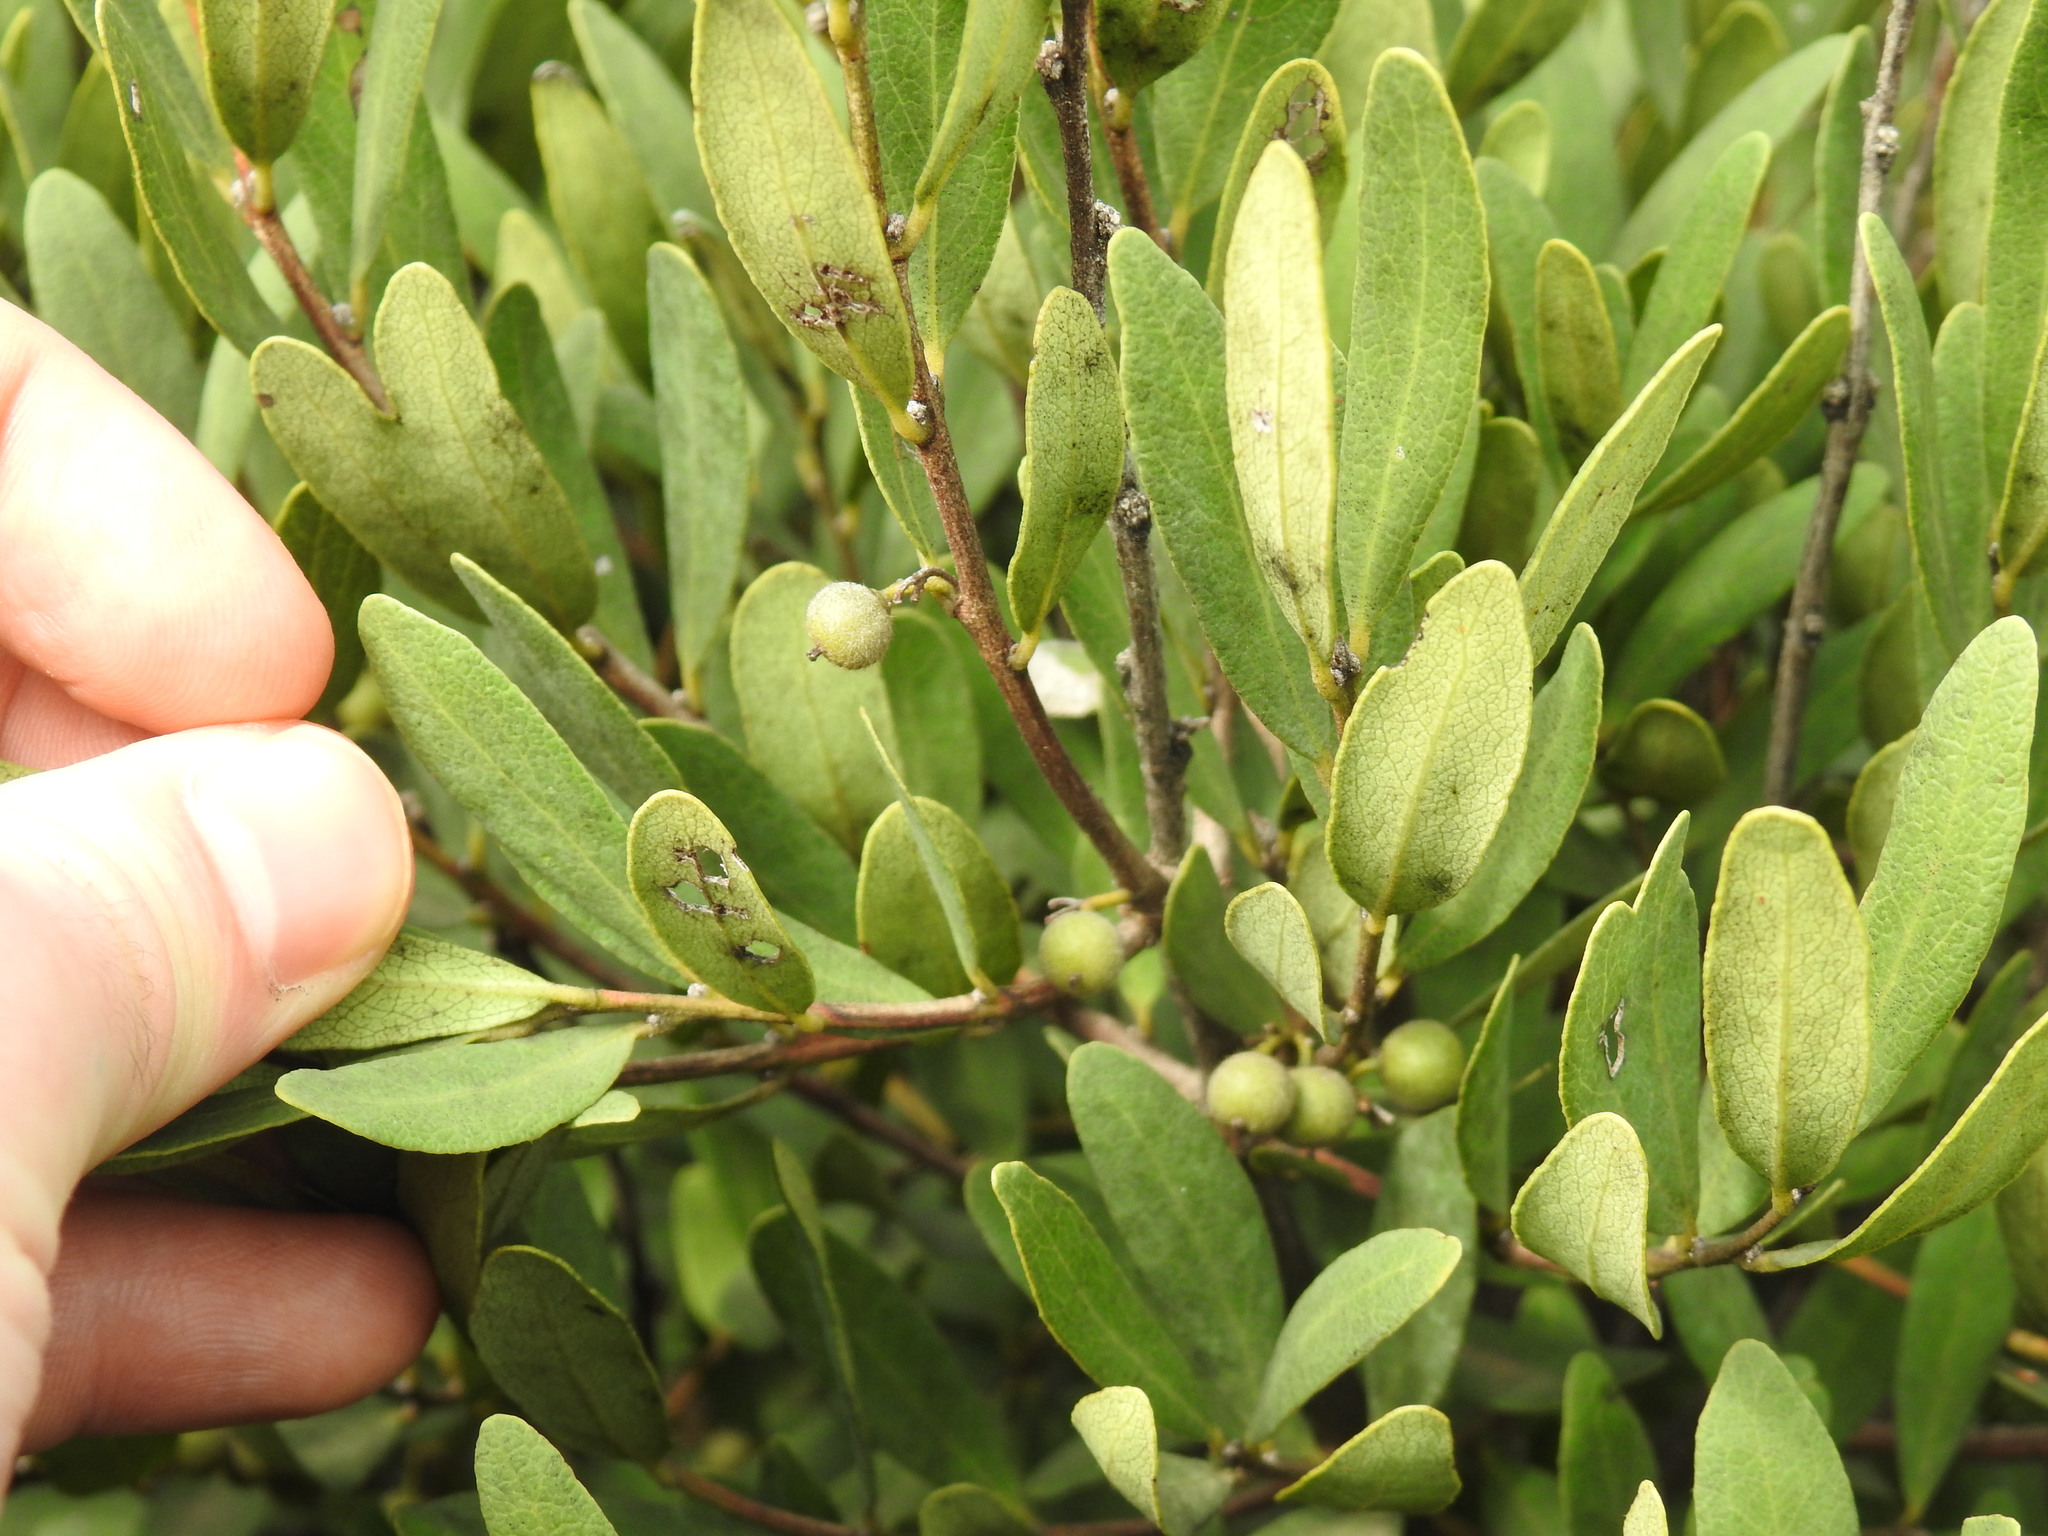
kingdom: Plantae
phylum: Tracheophyta
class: Magnoliopsida
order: Ericales
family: Ebenaceae
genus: Euclea
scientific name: Euclea crispa
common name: Blue guarri
